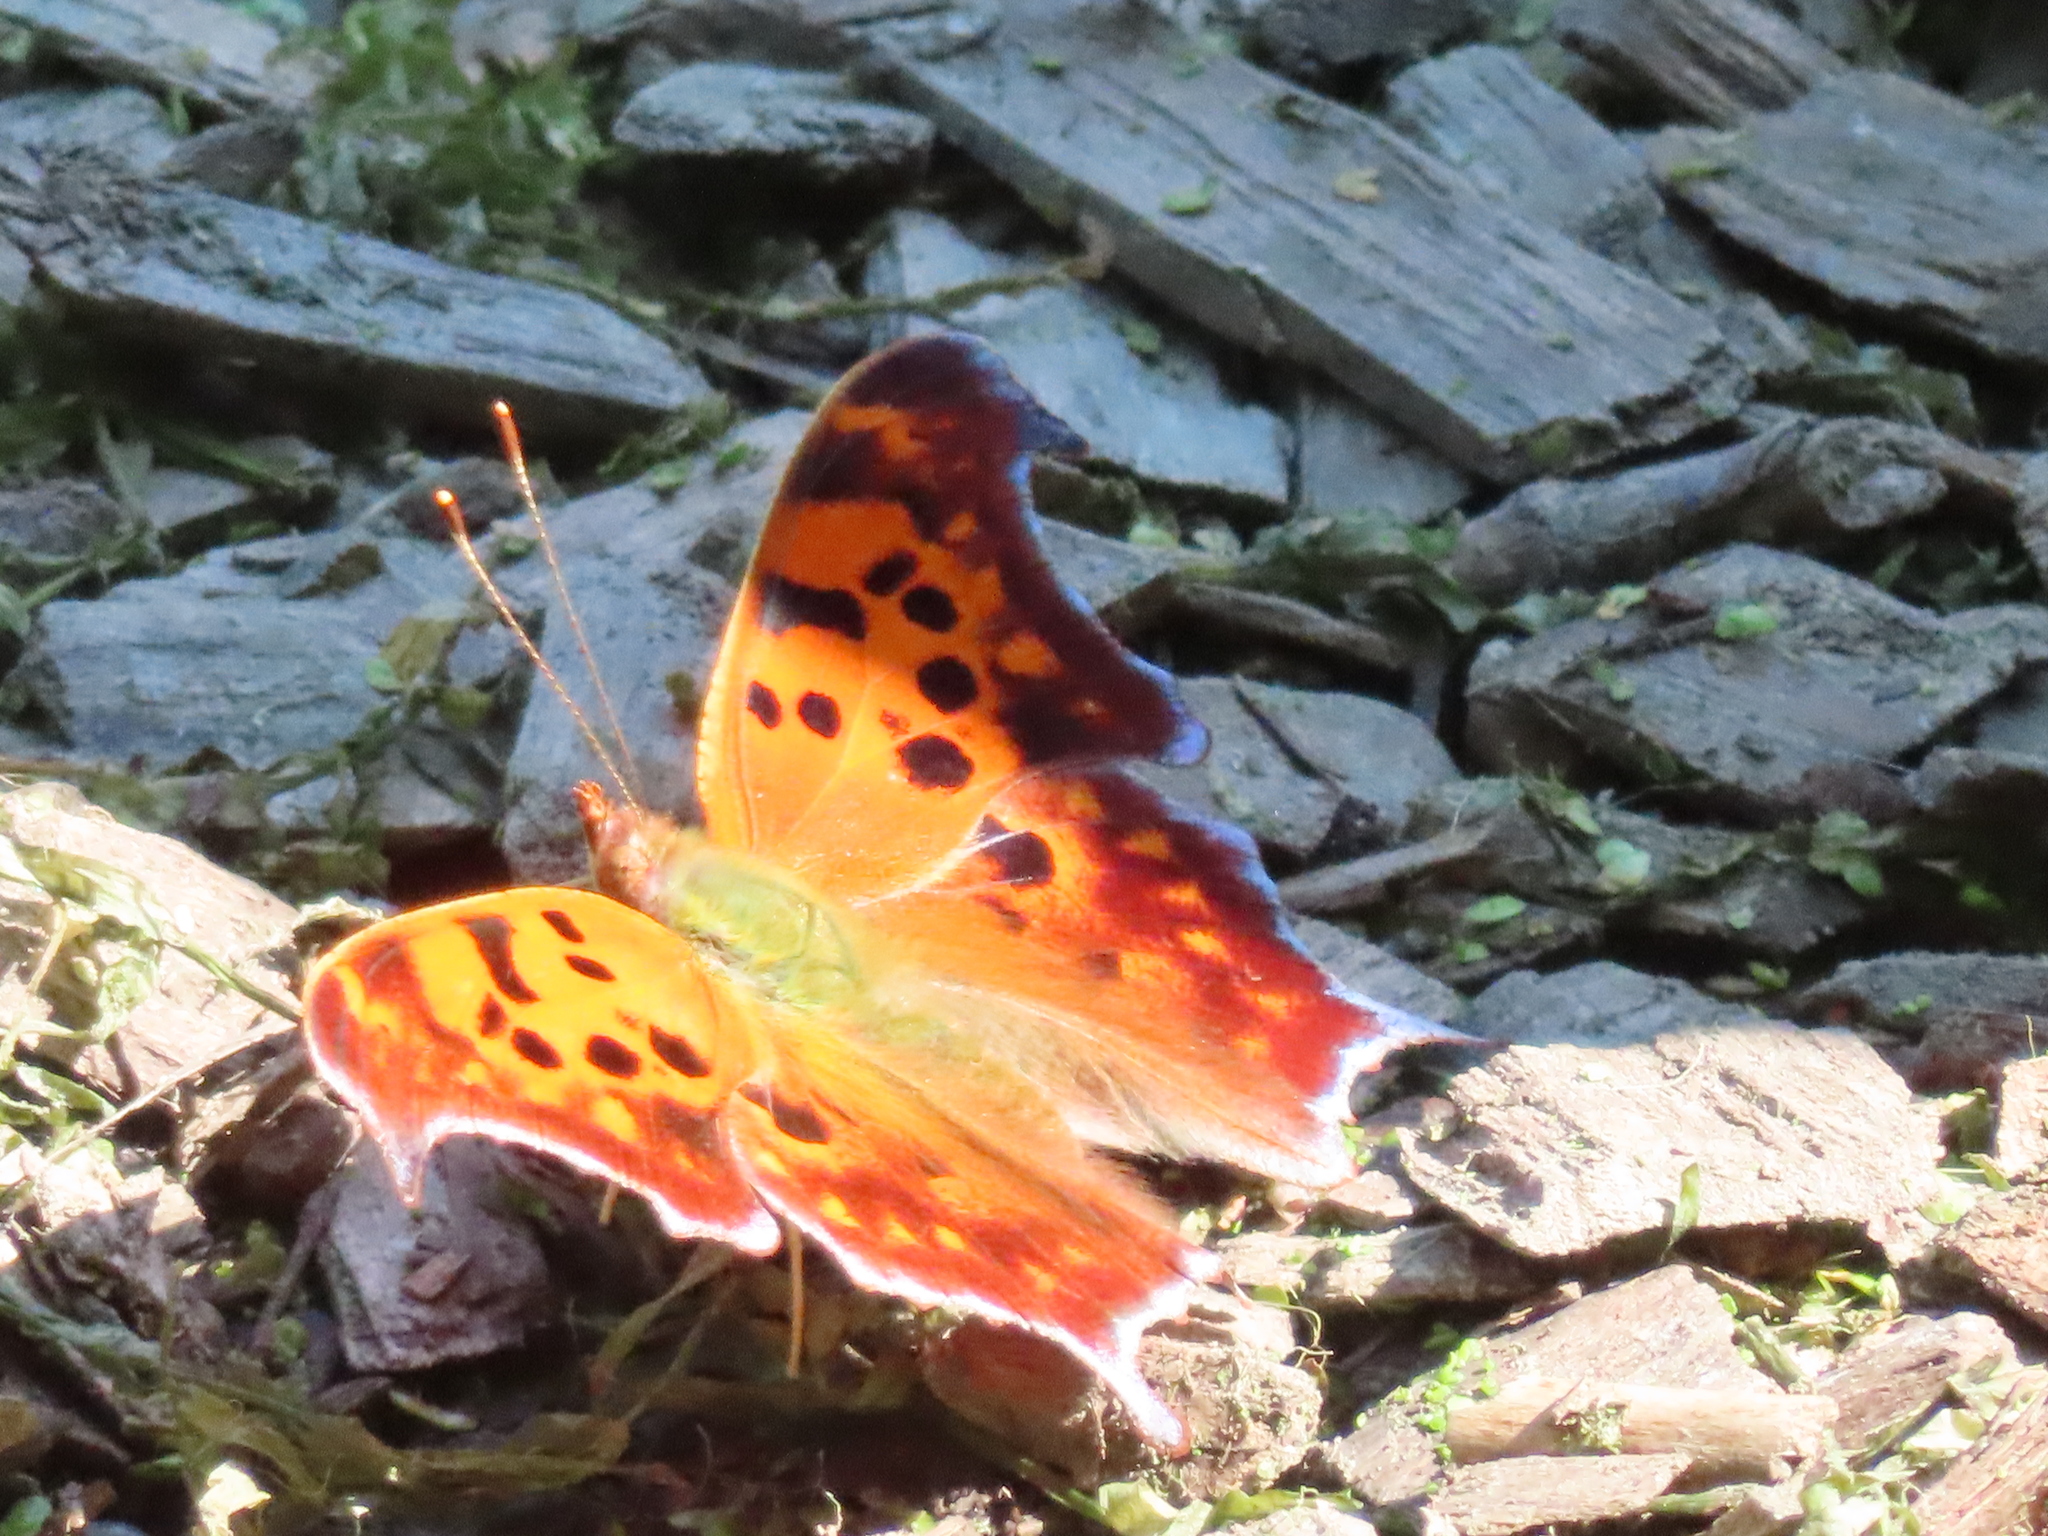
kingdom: Animalia
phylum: Arthropoda
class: Insecta
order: Lepidoptera
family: Nymphalidae
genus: Polygonia
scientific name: Polygonia interrogationis
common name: Question mark
